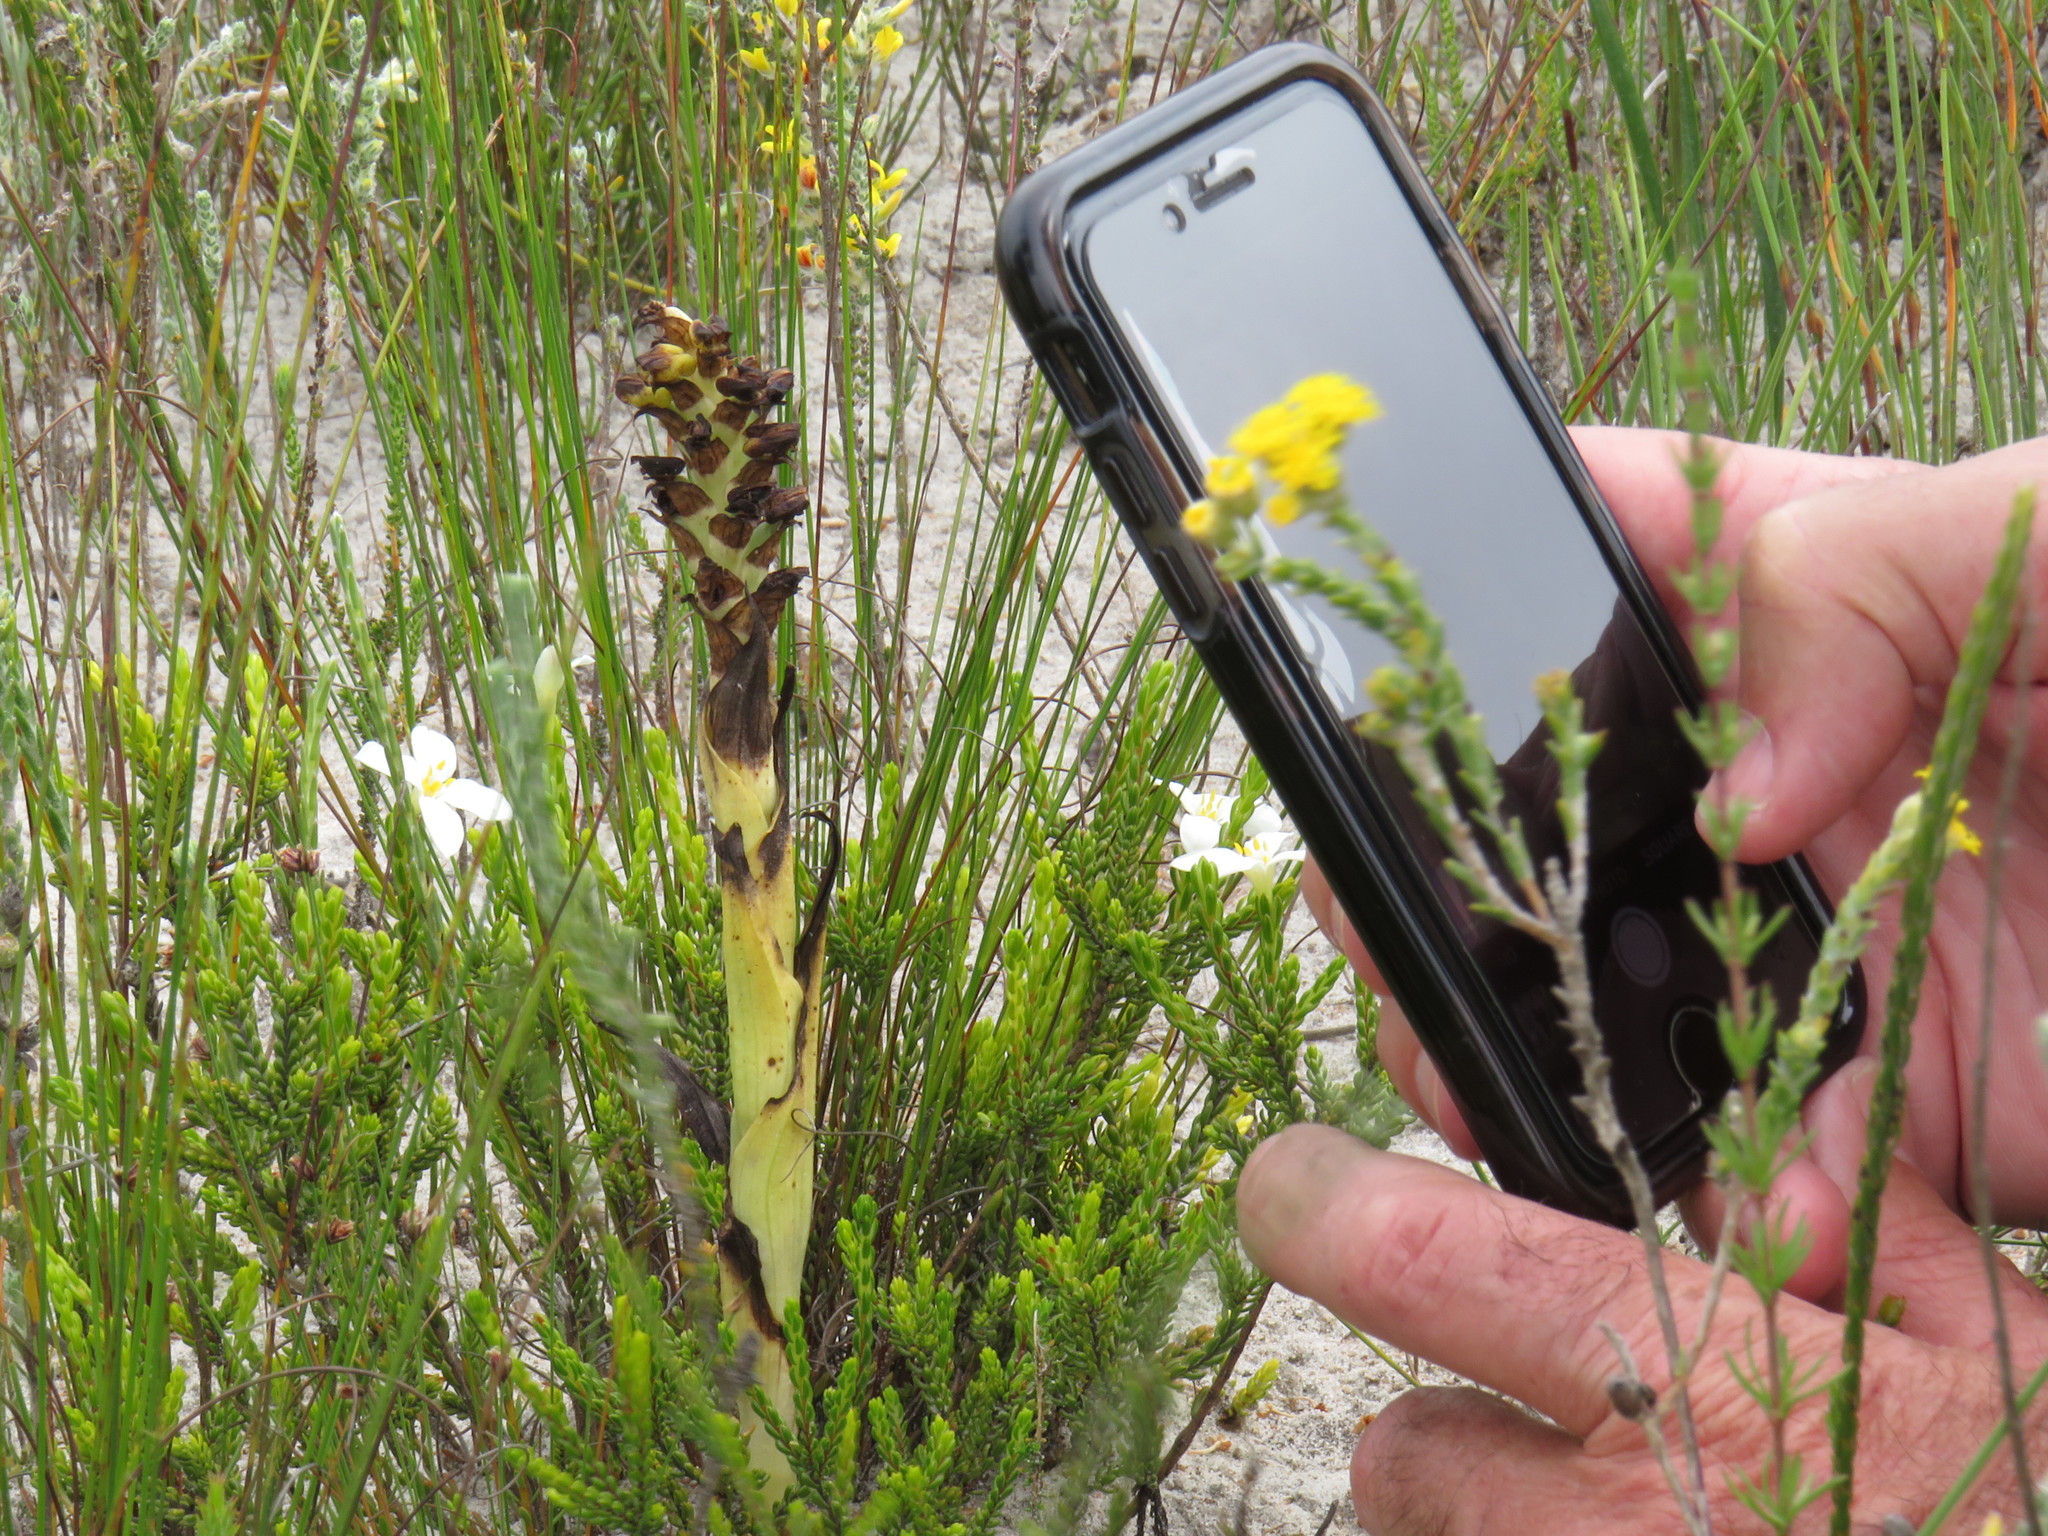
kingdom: Plantae
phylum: Tracheophyta
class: Liliopsida
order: Asparagales
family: Orchidaceae
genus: Corycium
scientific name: Corycium orobanchoides
